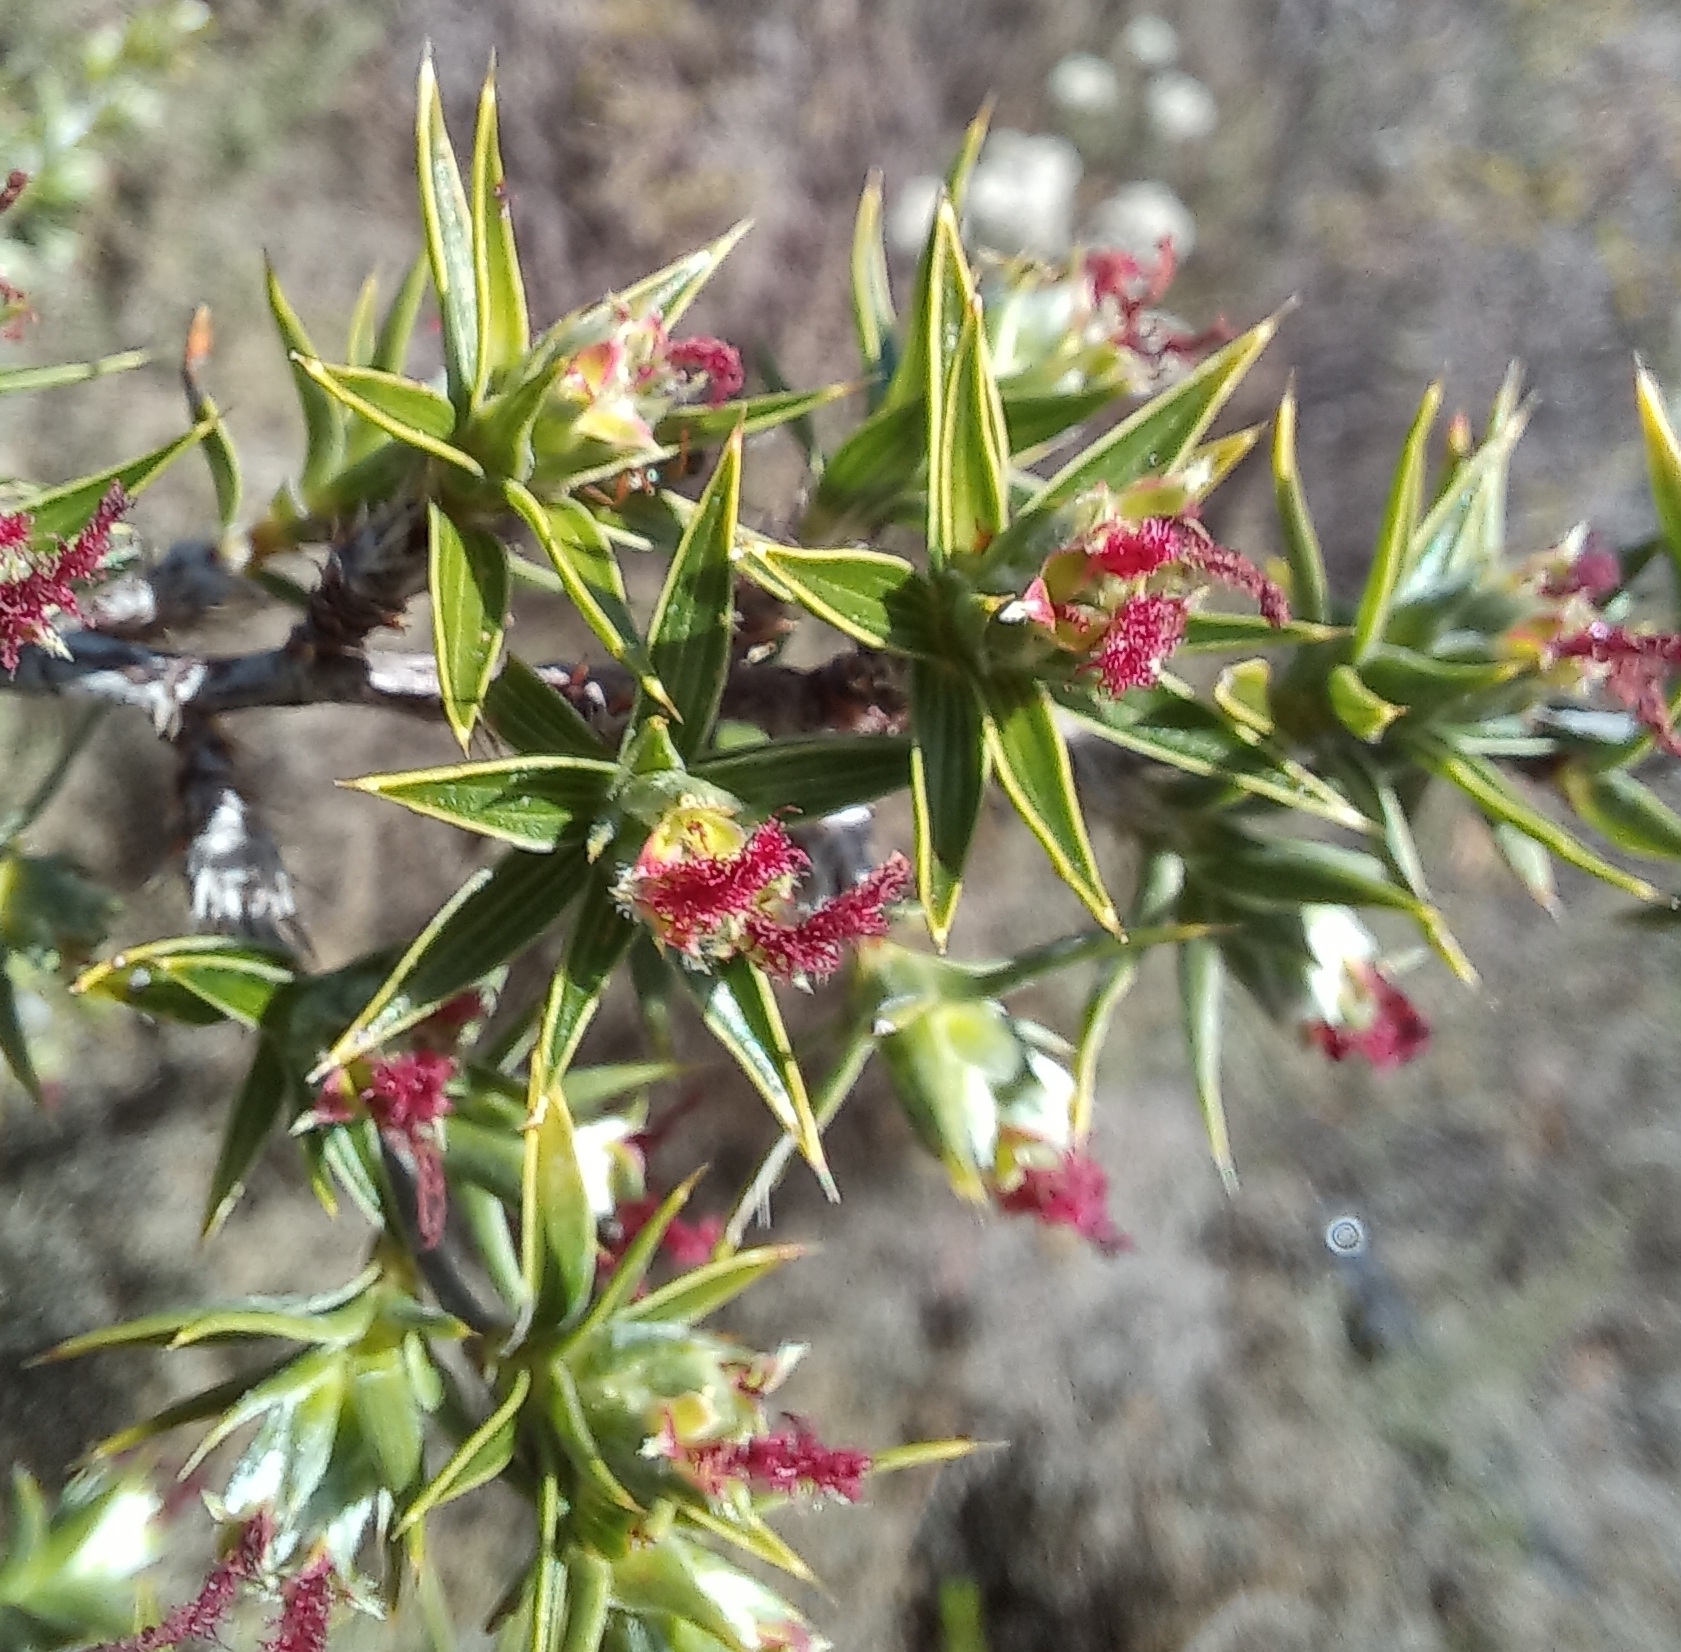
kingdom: Plantae
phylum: Tracheophyta
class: Magnoliopsida
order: Rosales
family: Rosaceae
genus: Cliffortia
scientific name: Cliffortia ruscifolia
